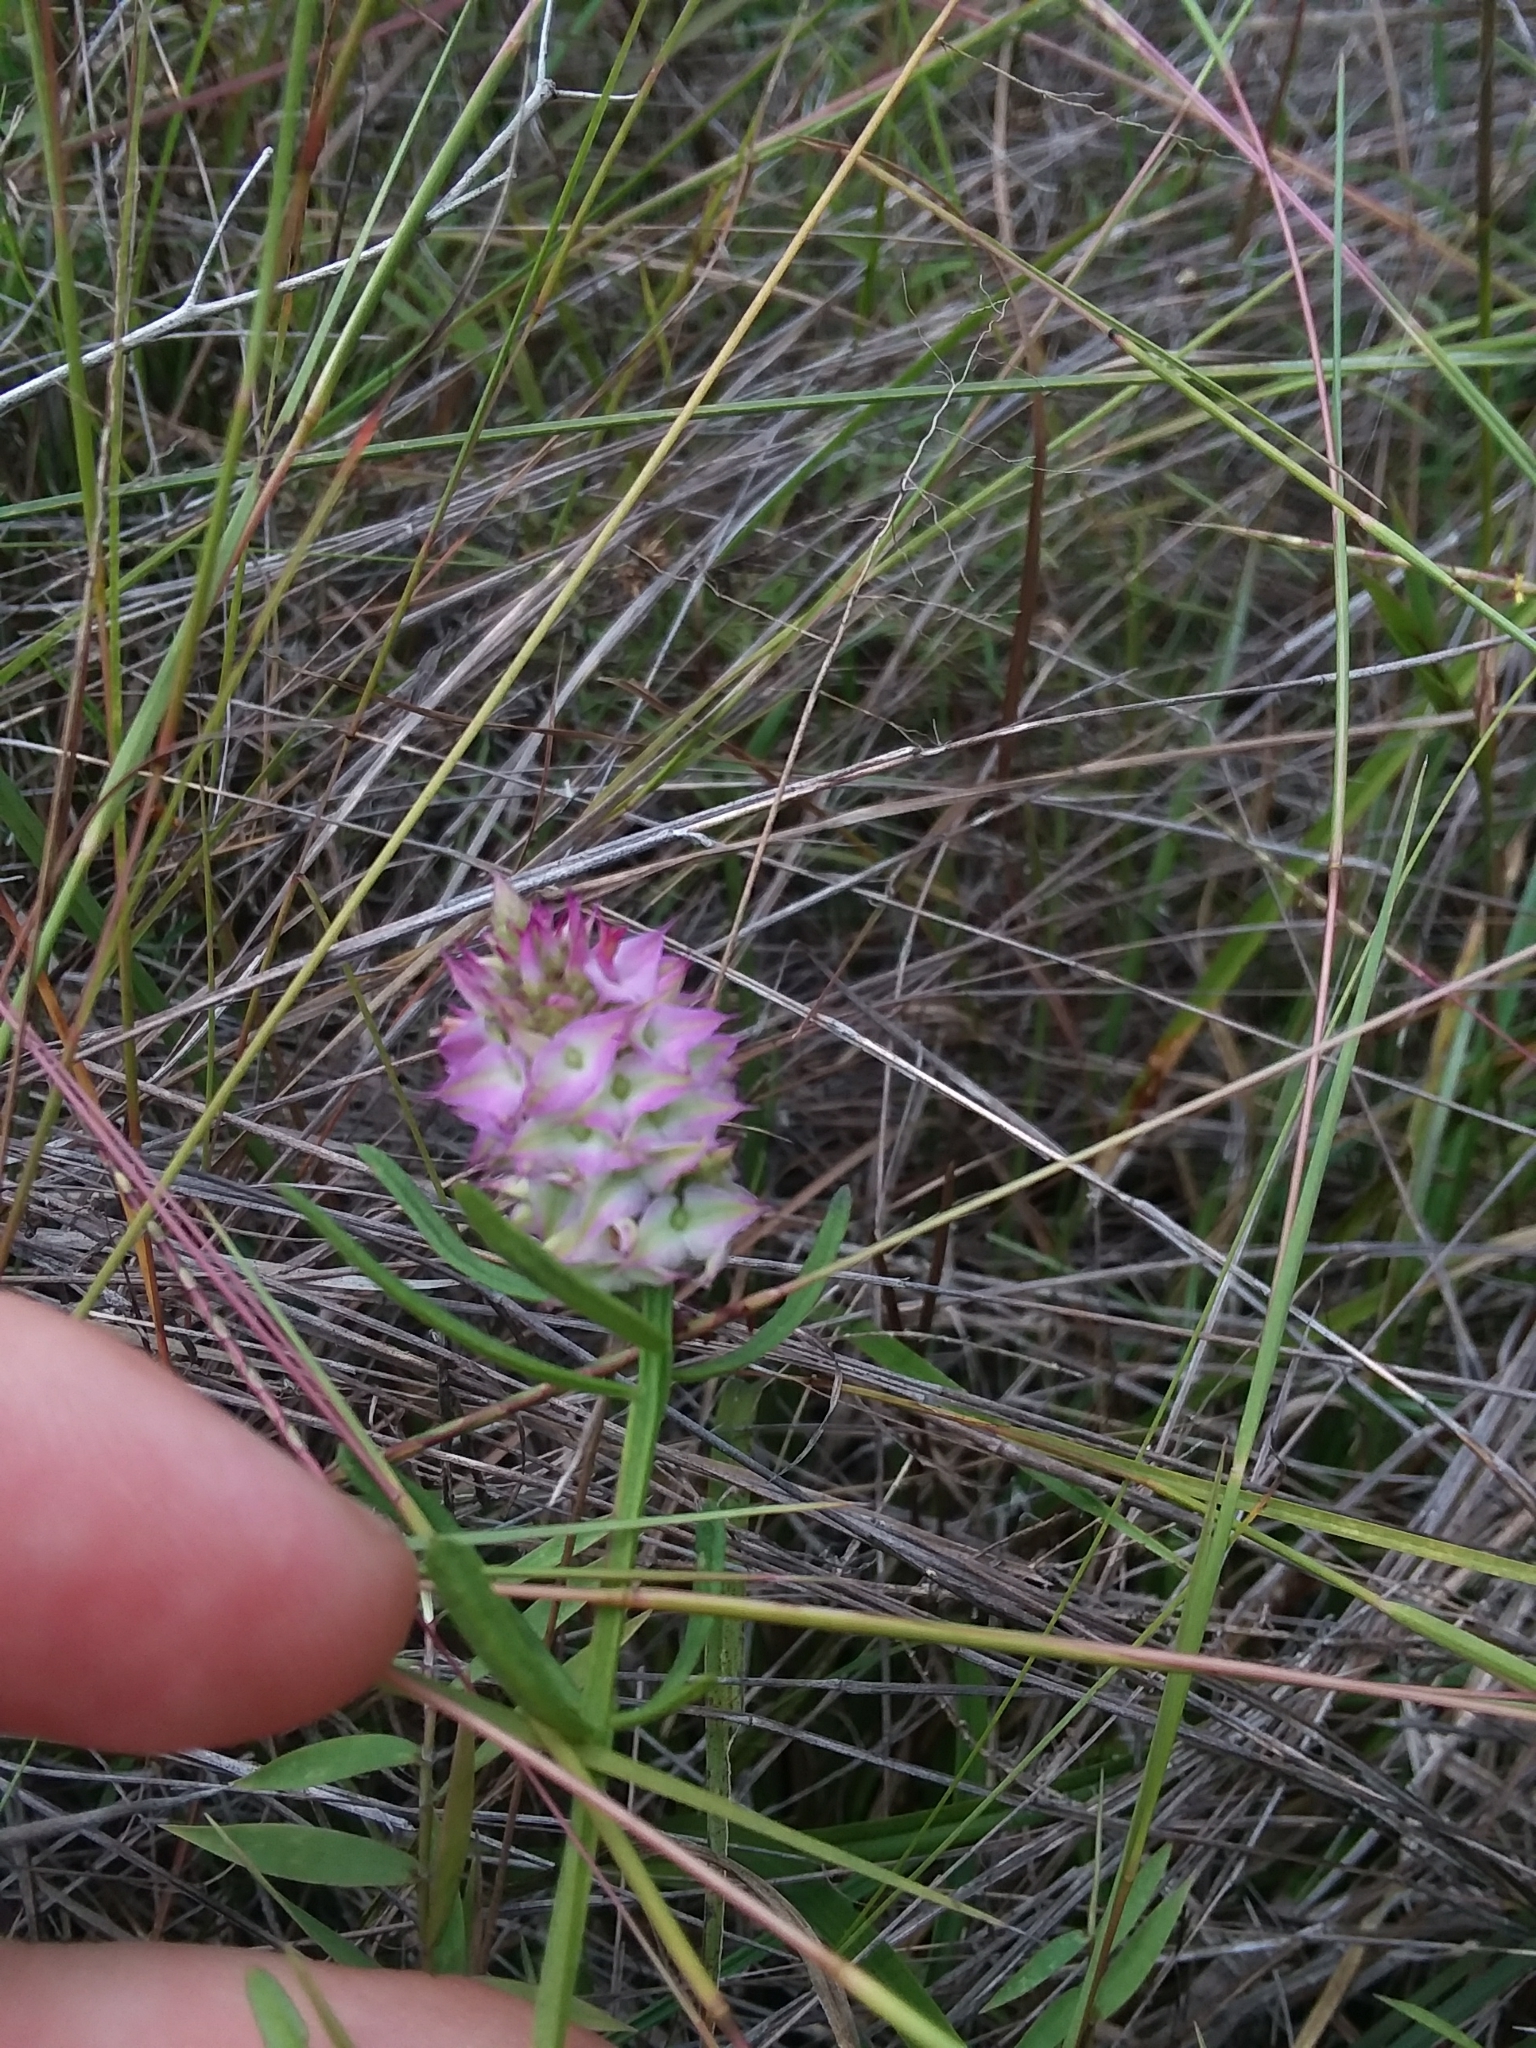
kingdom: Plantae
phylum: Tracheophyta
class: Magnoliopsida
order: Fabales
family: Polygalaceae
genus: Polygala
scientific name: Polygala cruciata
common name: Drumheads
